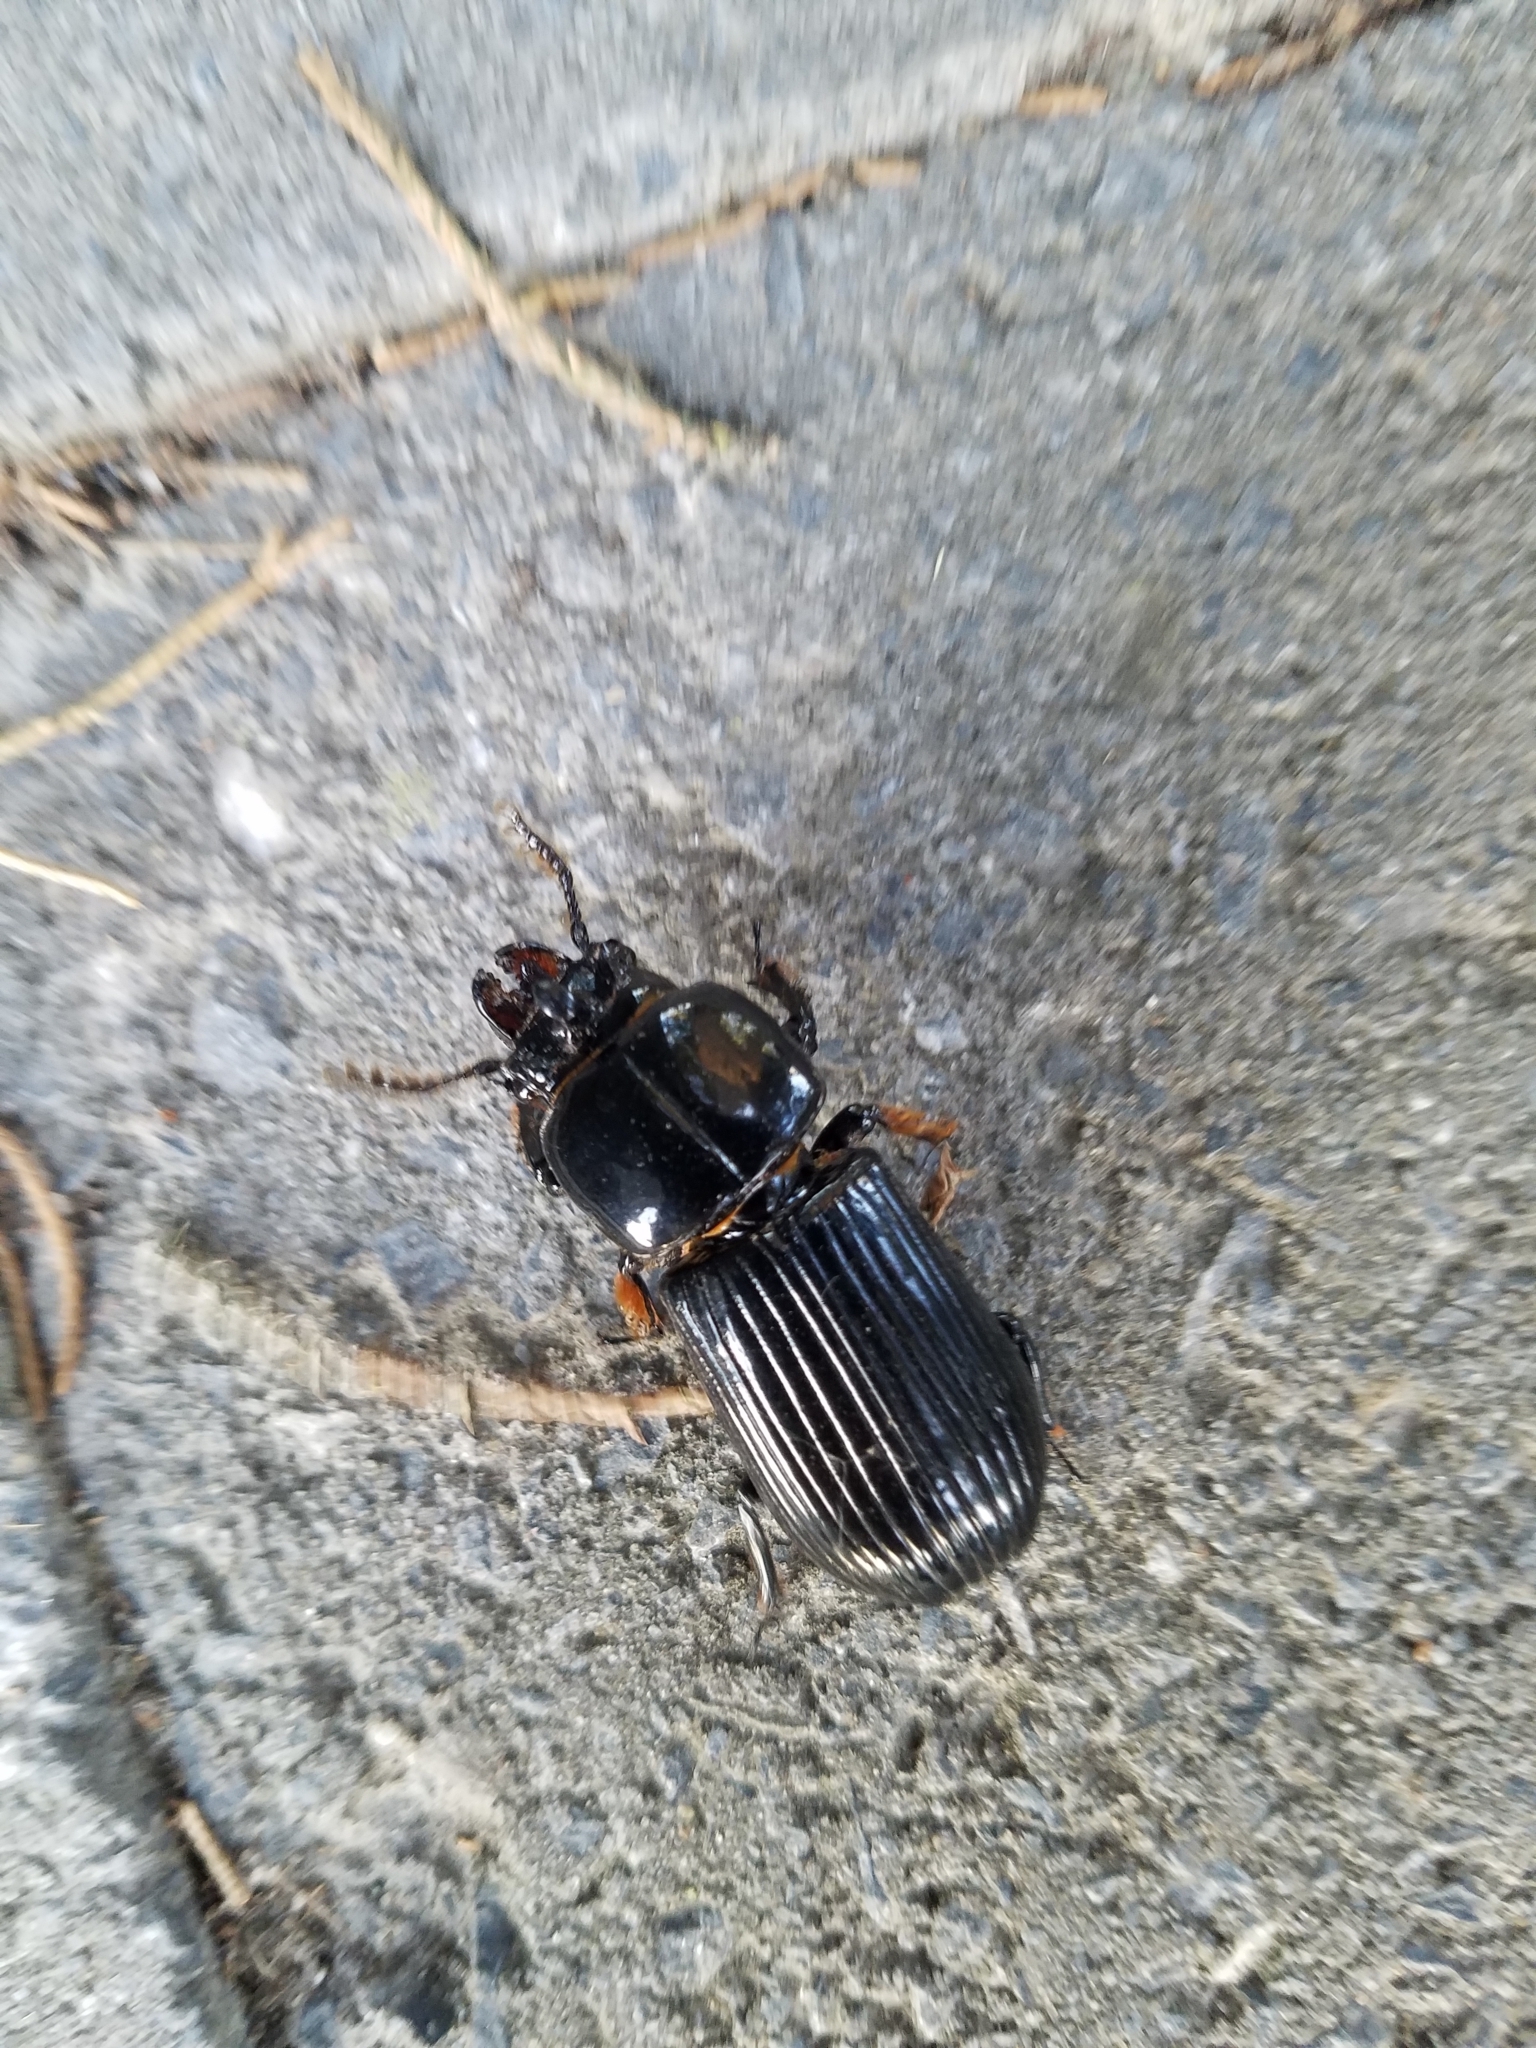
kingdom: Animalia
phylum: Arthropoda
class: Insecta
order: Coleoptera
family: Passalidae
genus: Odontotaenius
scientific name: Odontotaenius disjunctus
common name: Patent leather beetle
